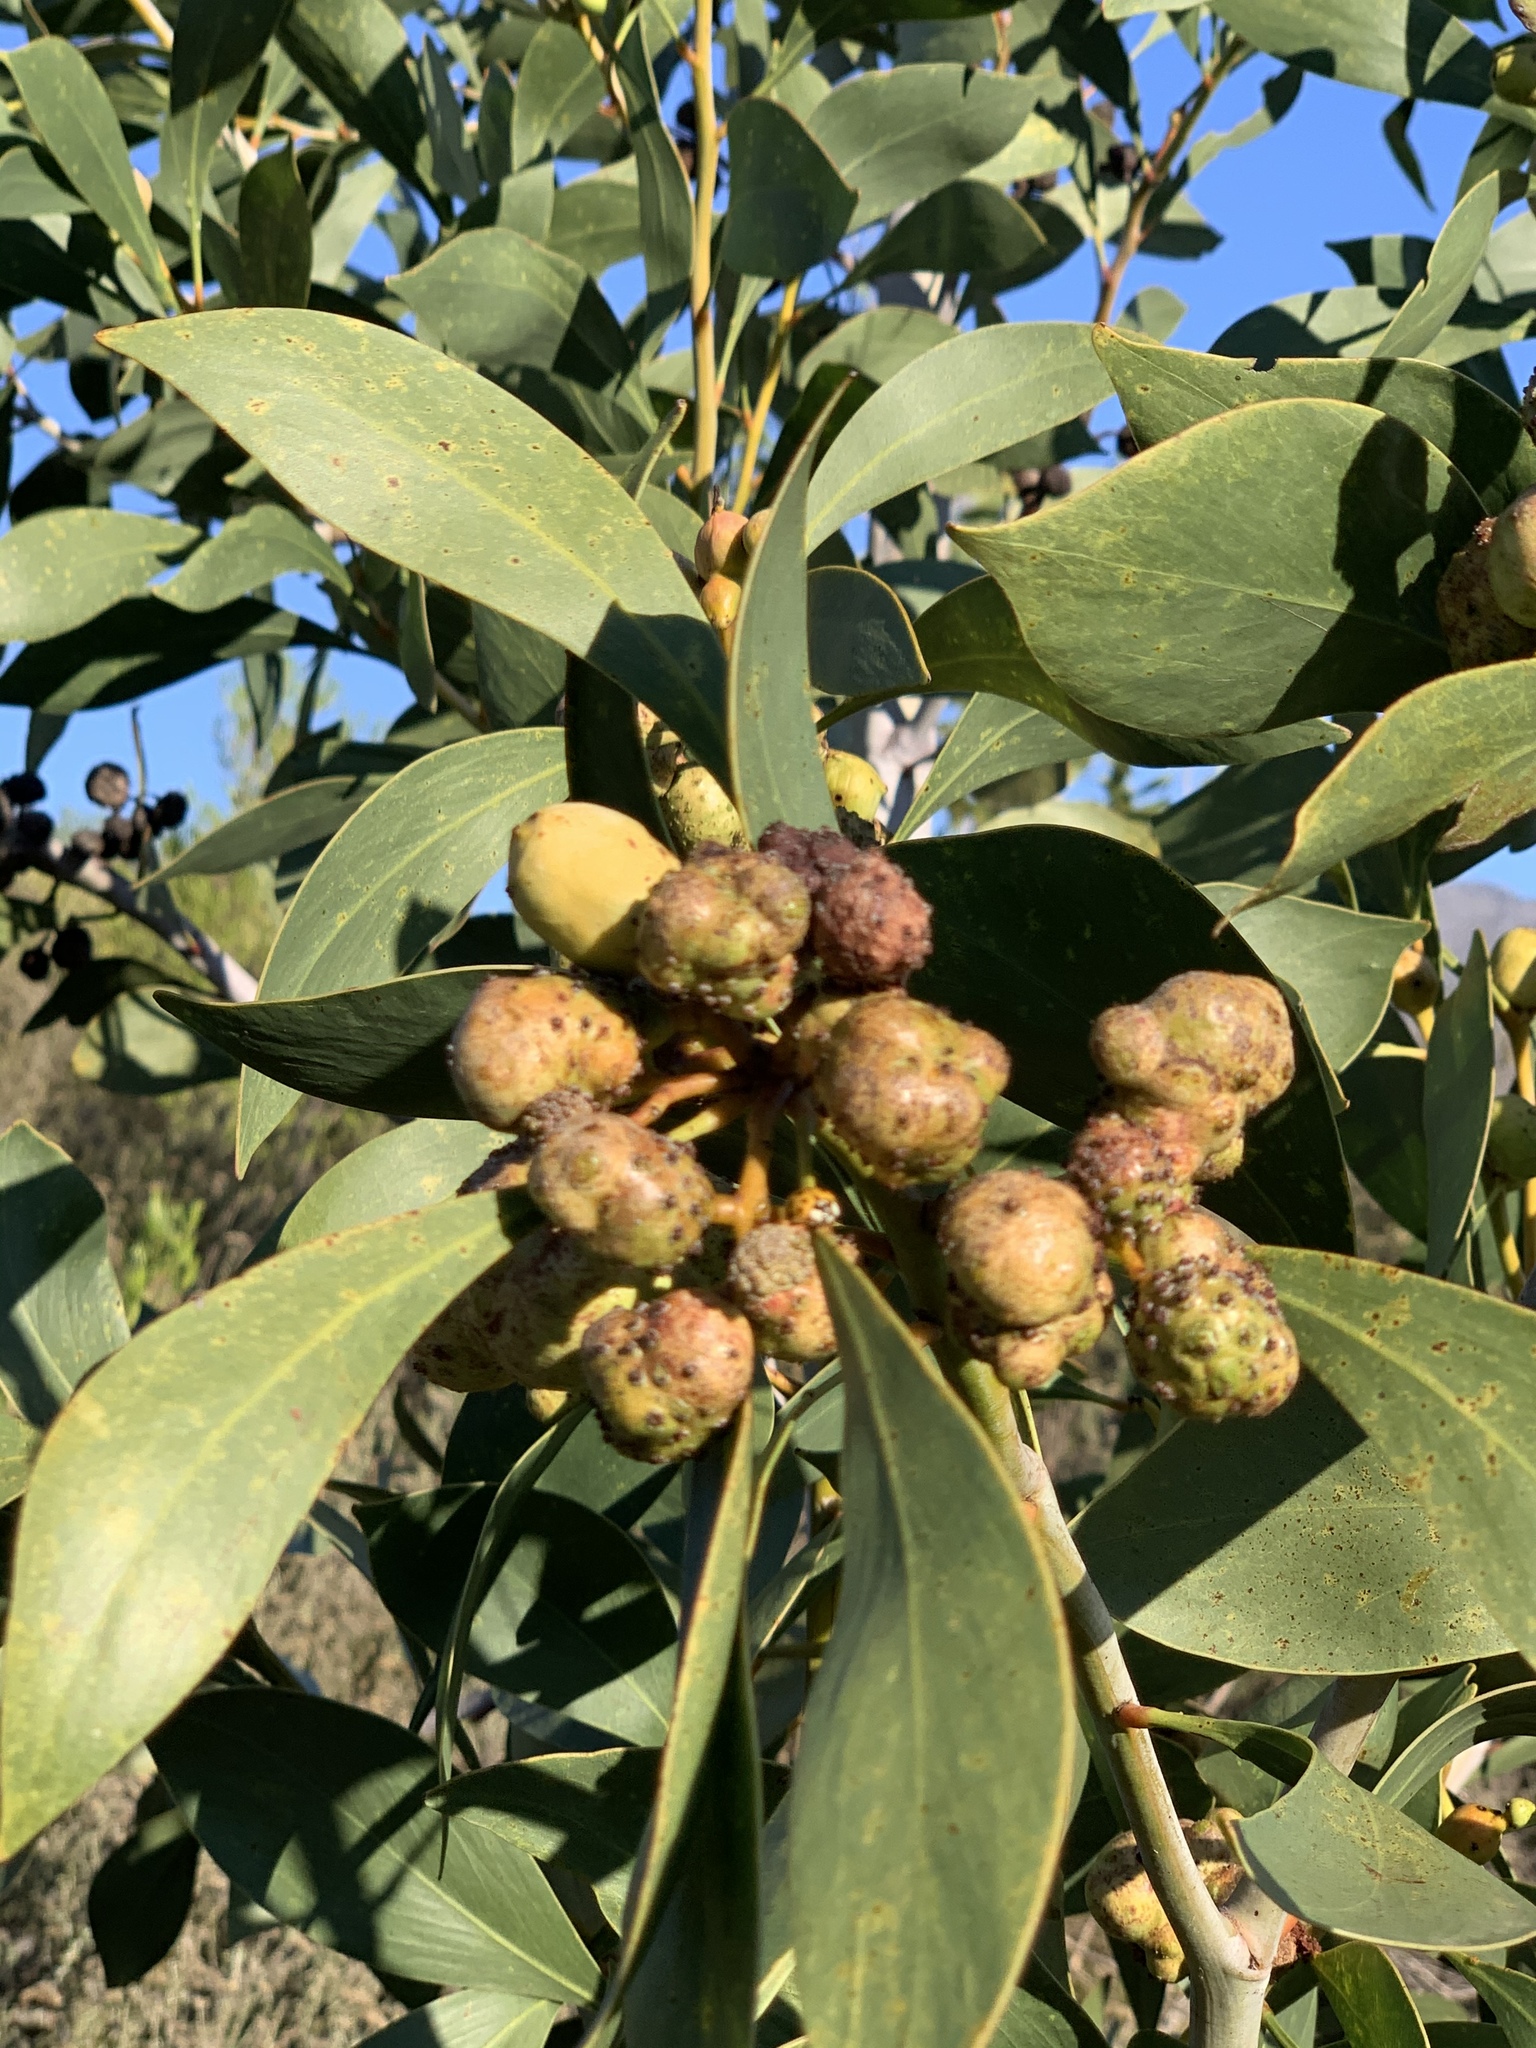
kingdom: Animalia
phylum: Arthropoda
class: Insecta
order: Hymenoptera
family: Pteromalidae
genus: Trichilogaster
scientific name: Trichilogaster signiventris
